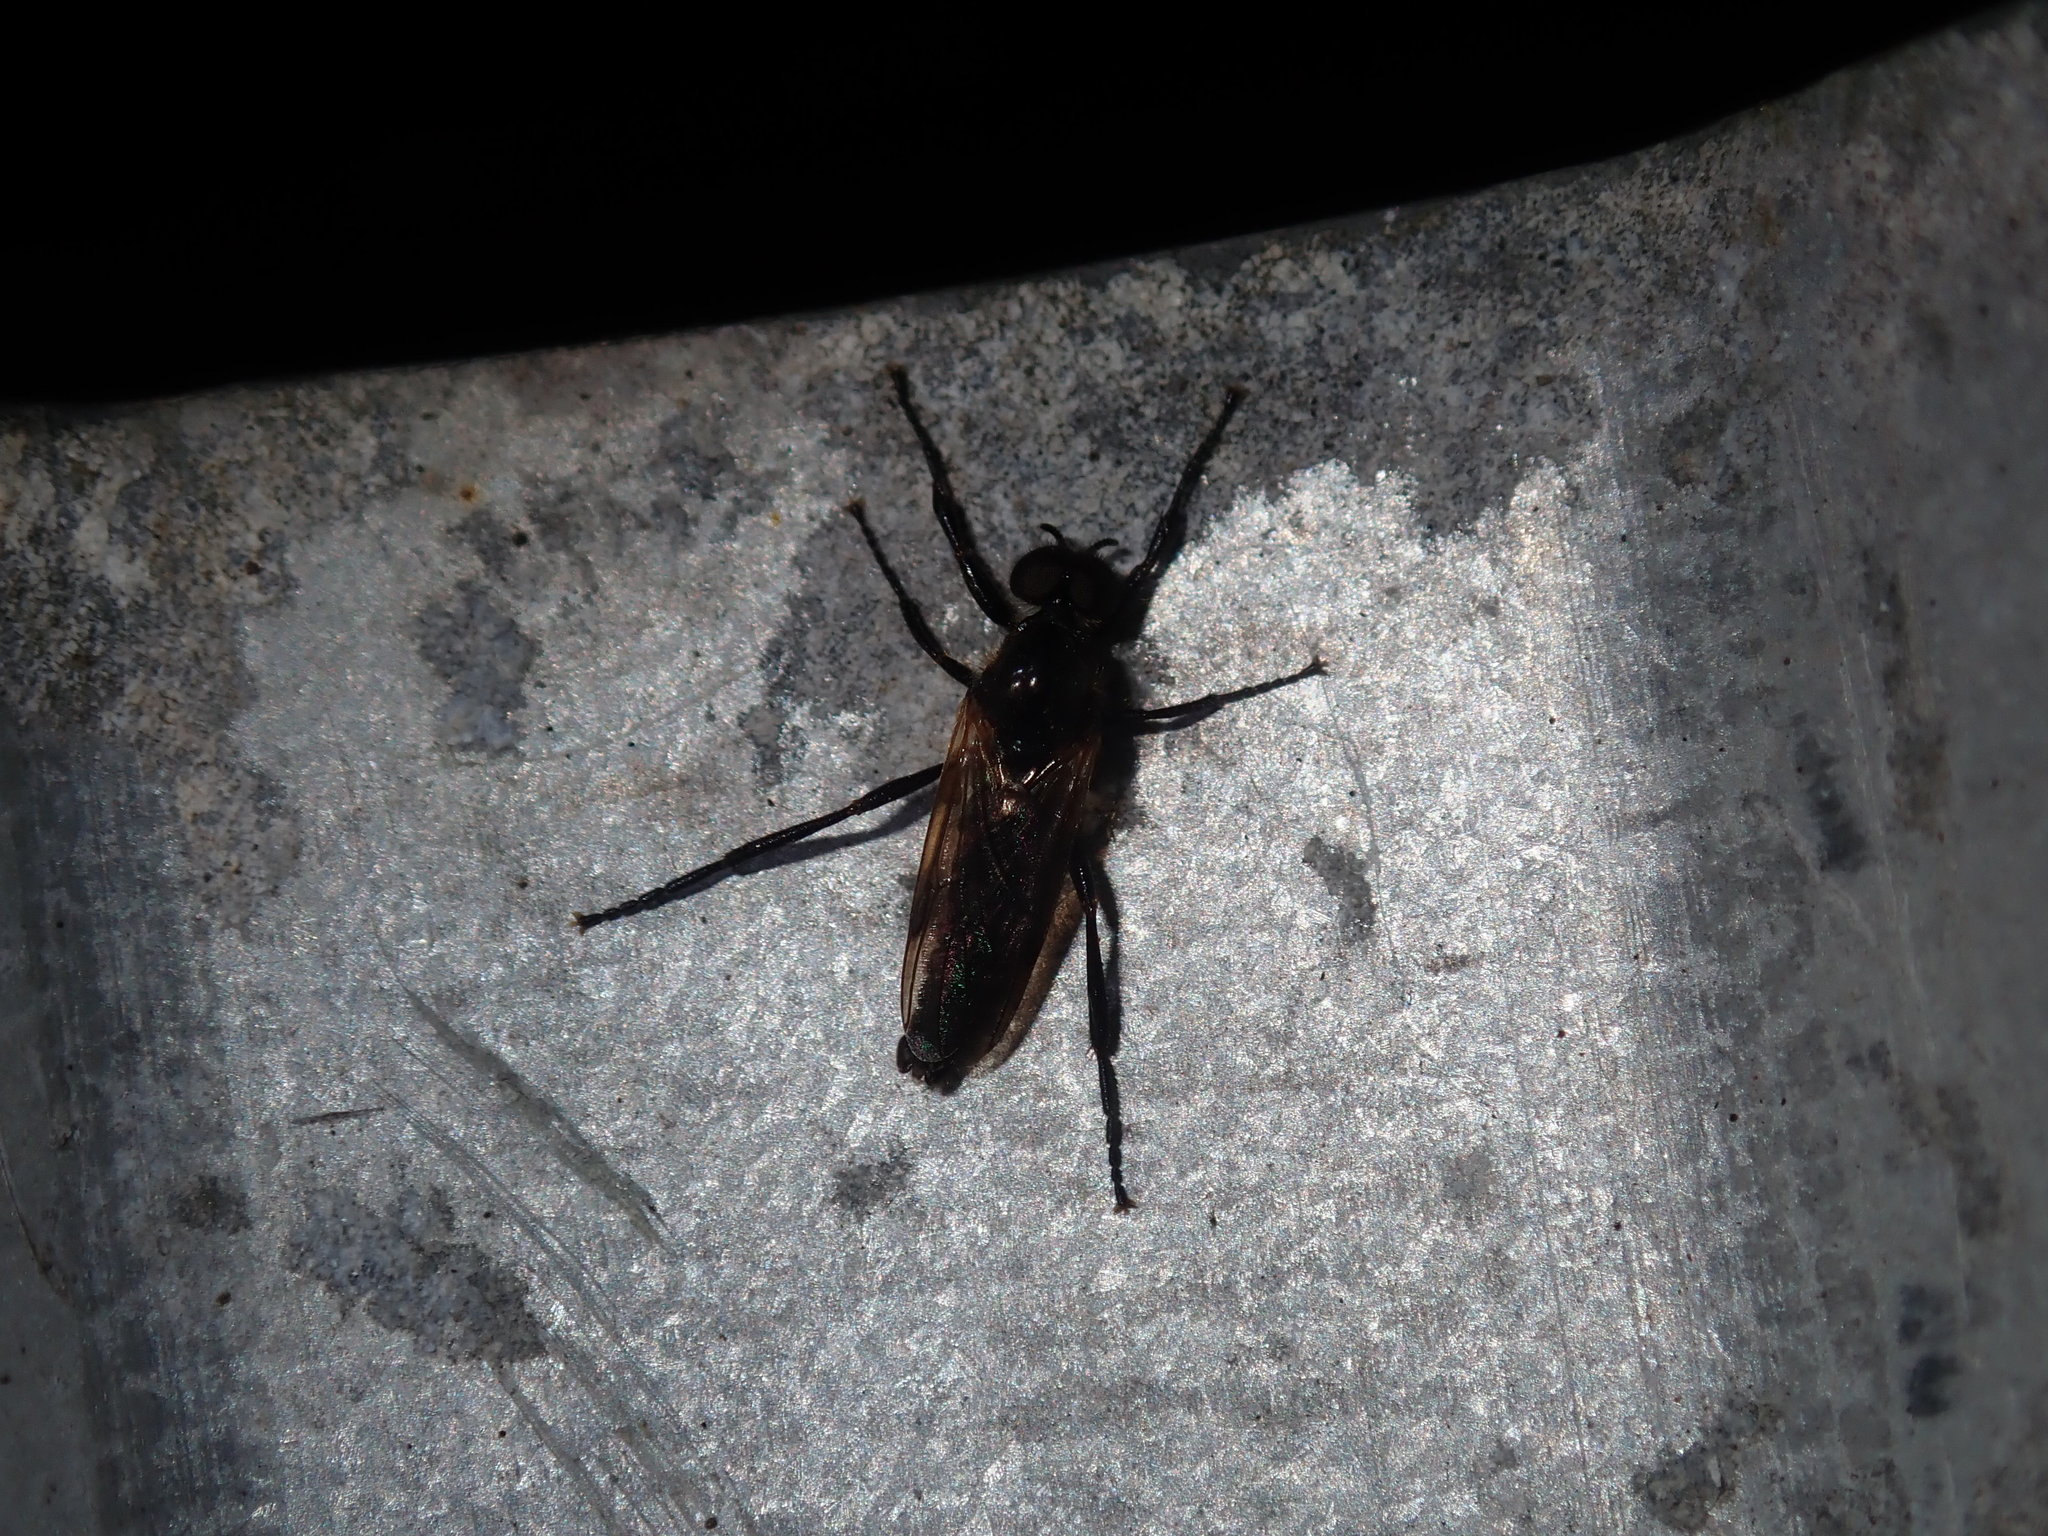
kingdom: Animalia
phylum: Arthropoda
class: Insecta
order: Diptera
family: Bibionidae
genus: Bibio
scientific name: Bibio imitator
